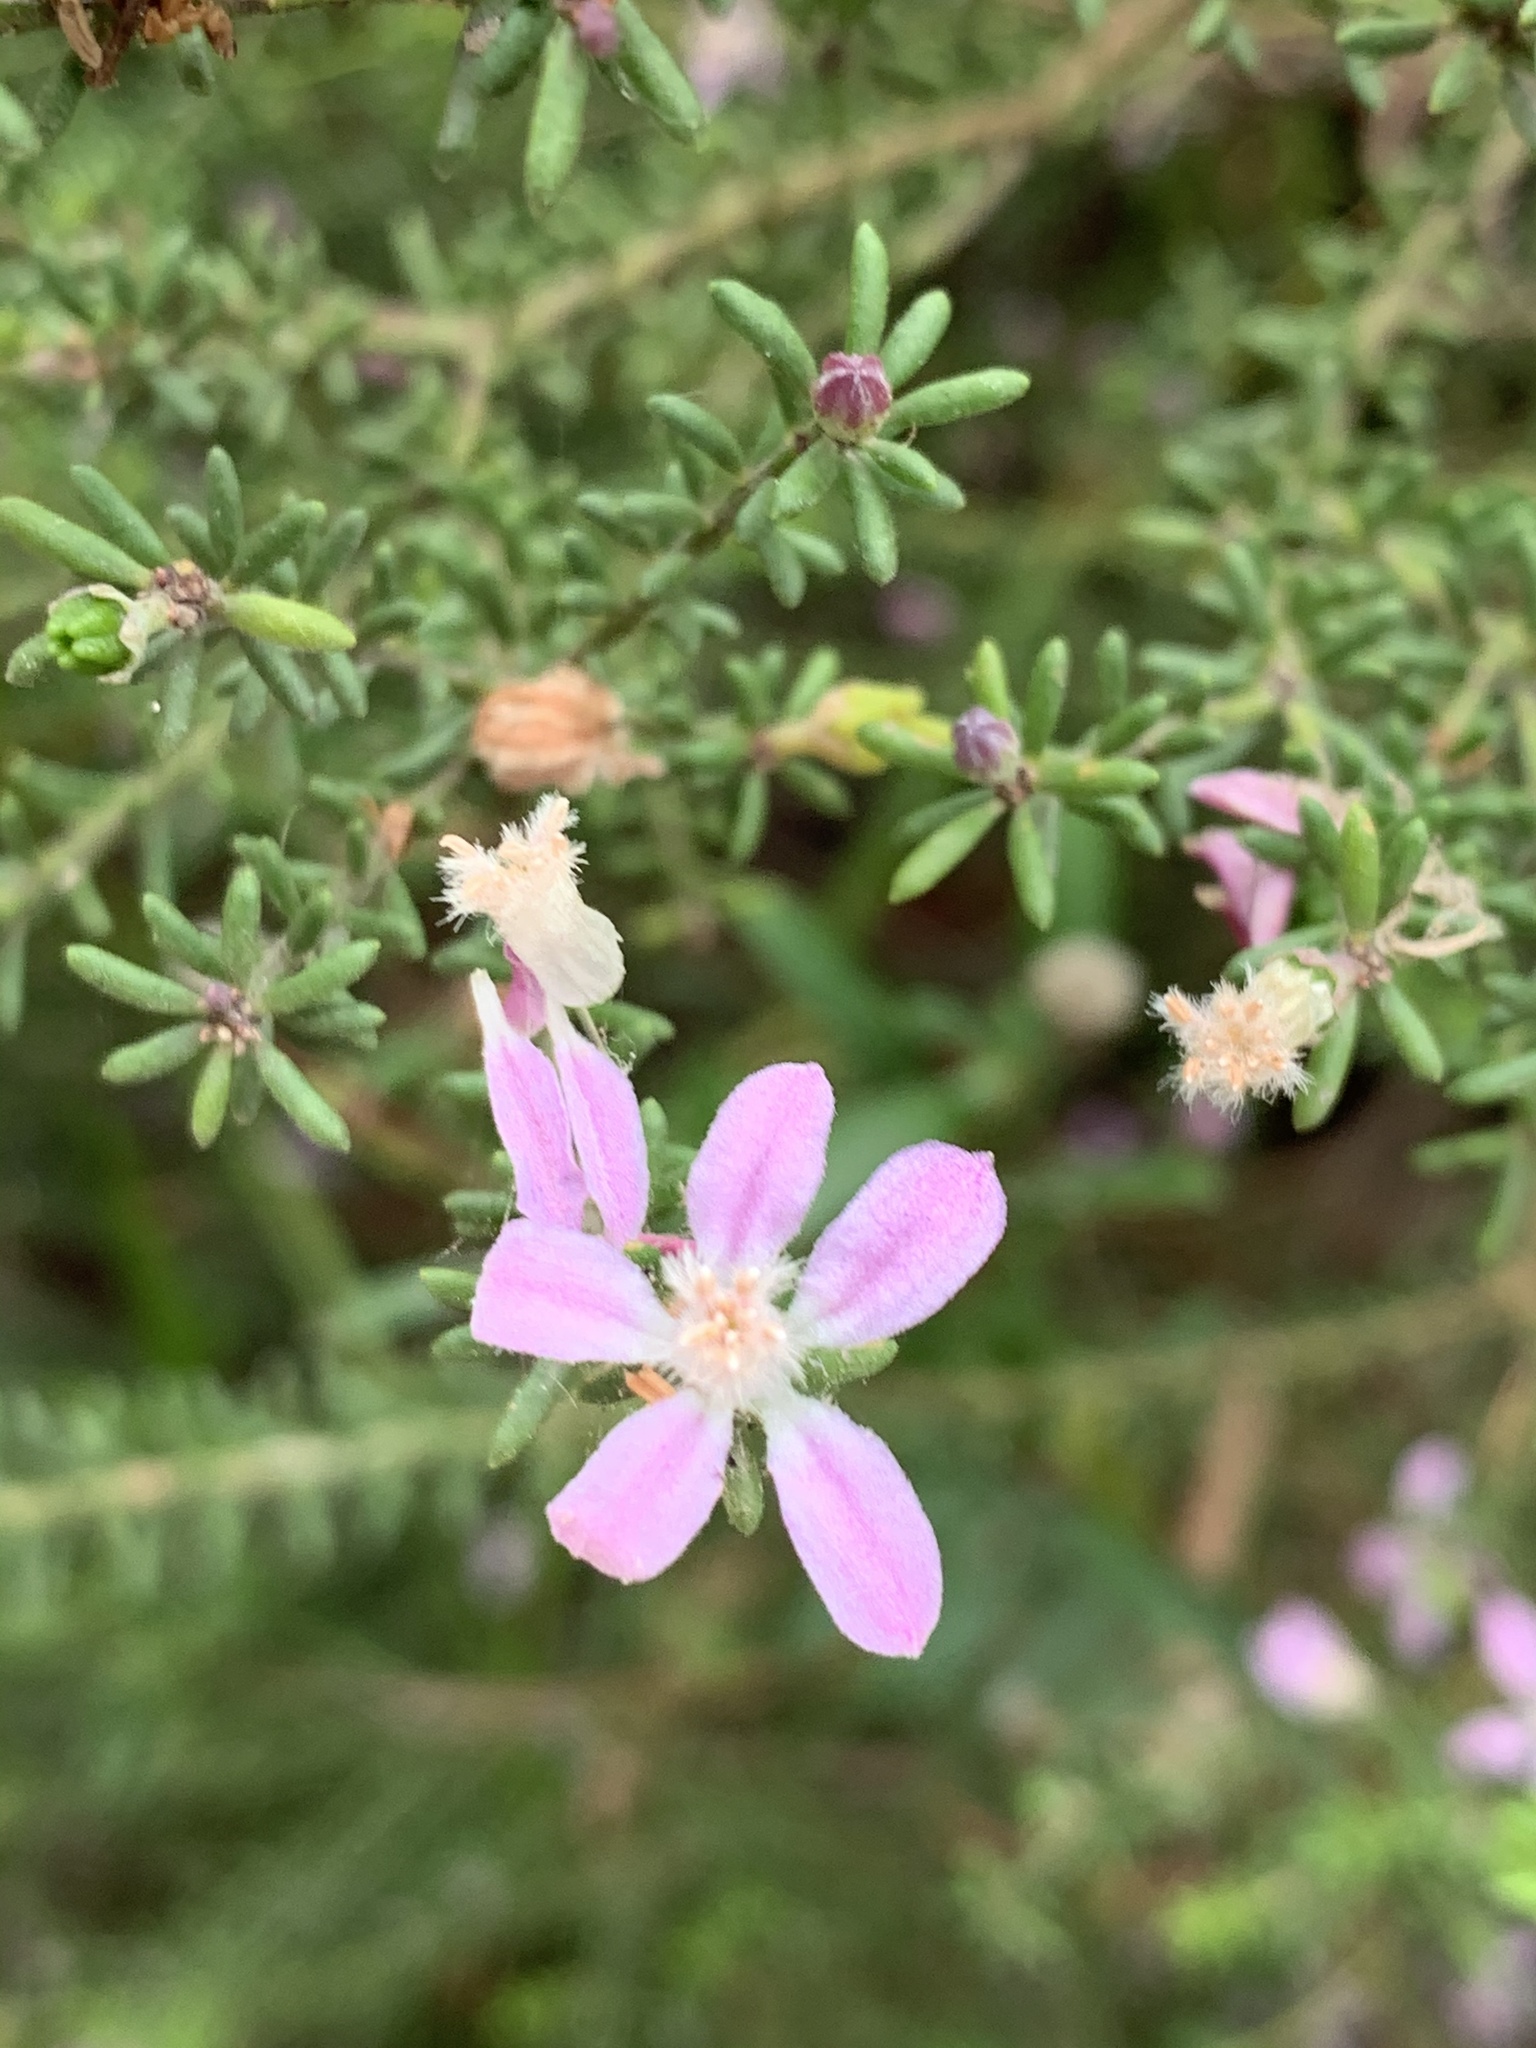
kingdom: Plantae
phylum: Tracheophyta
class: Magnoliopsida
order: Sapindales
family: Rutaceae
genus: Philotheca
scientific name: Philotheca salsolifolia
